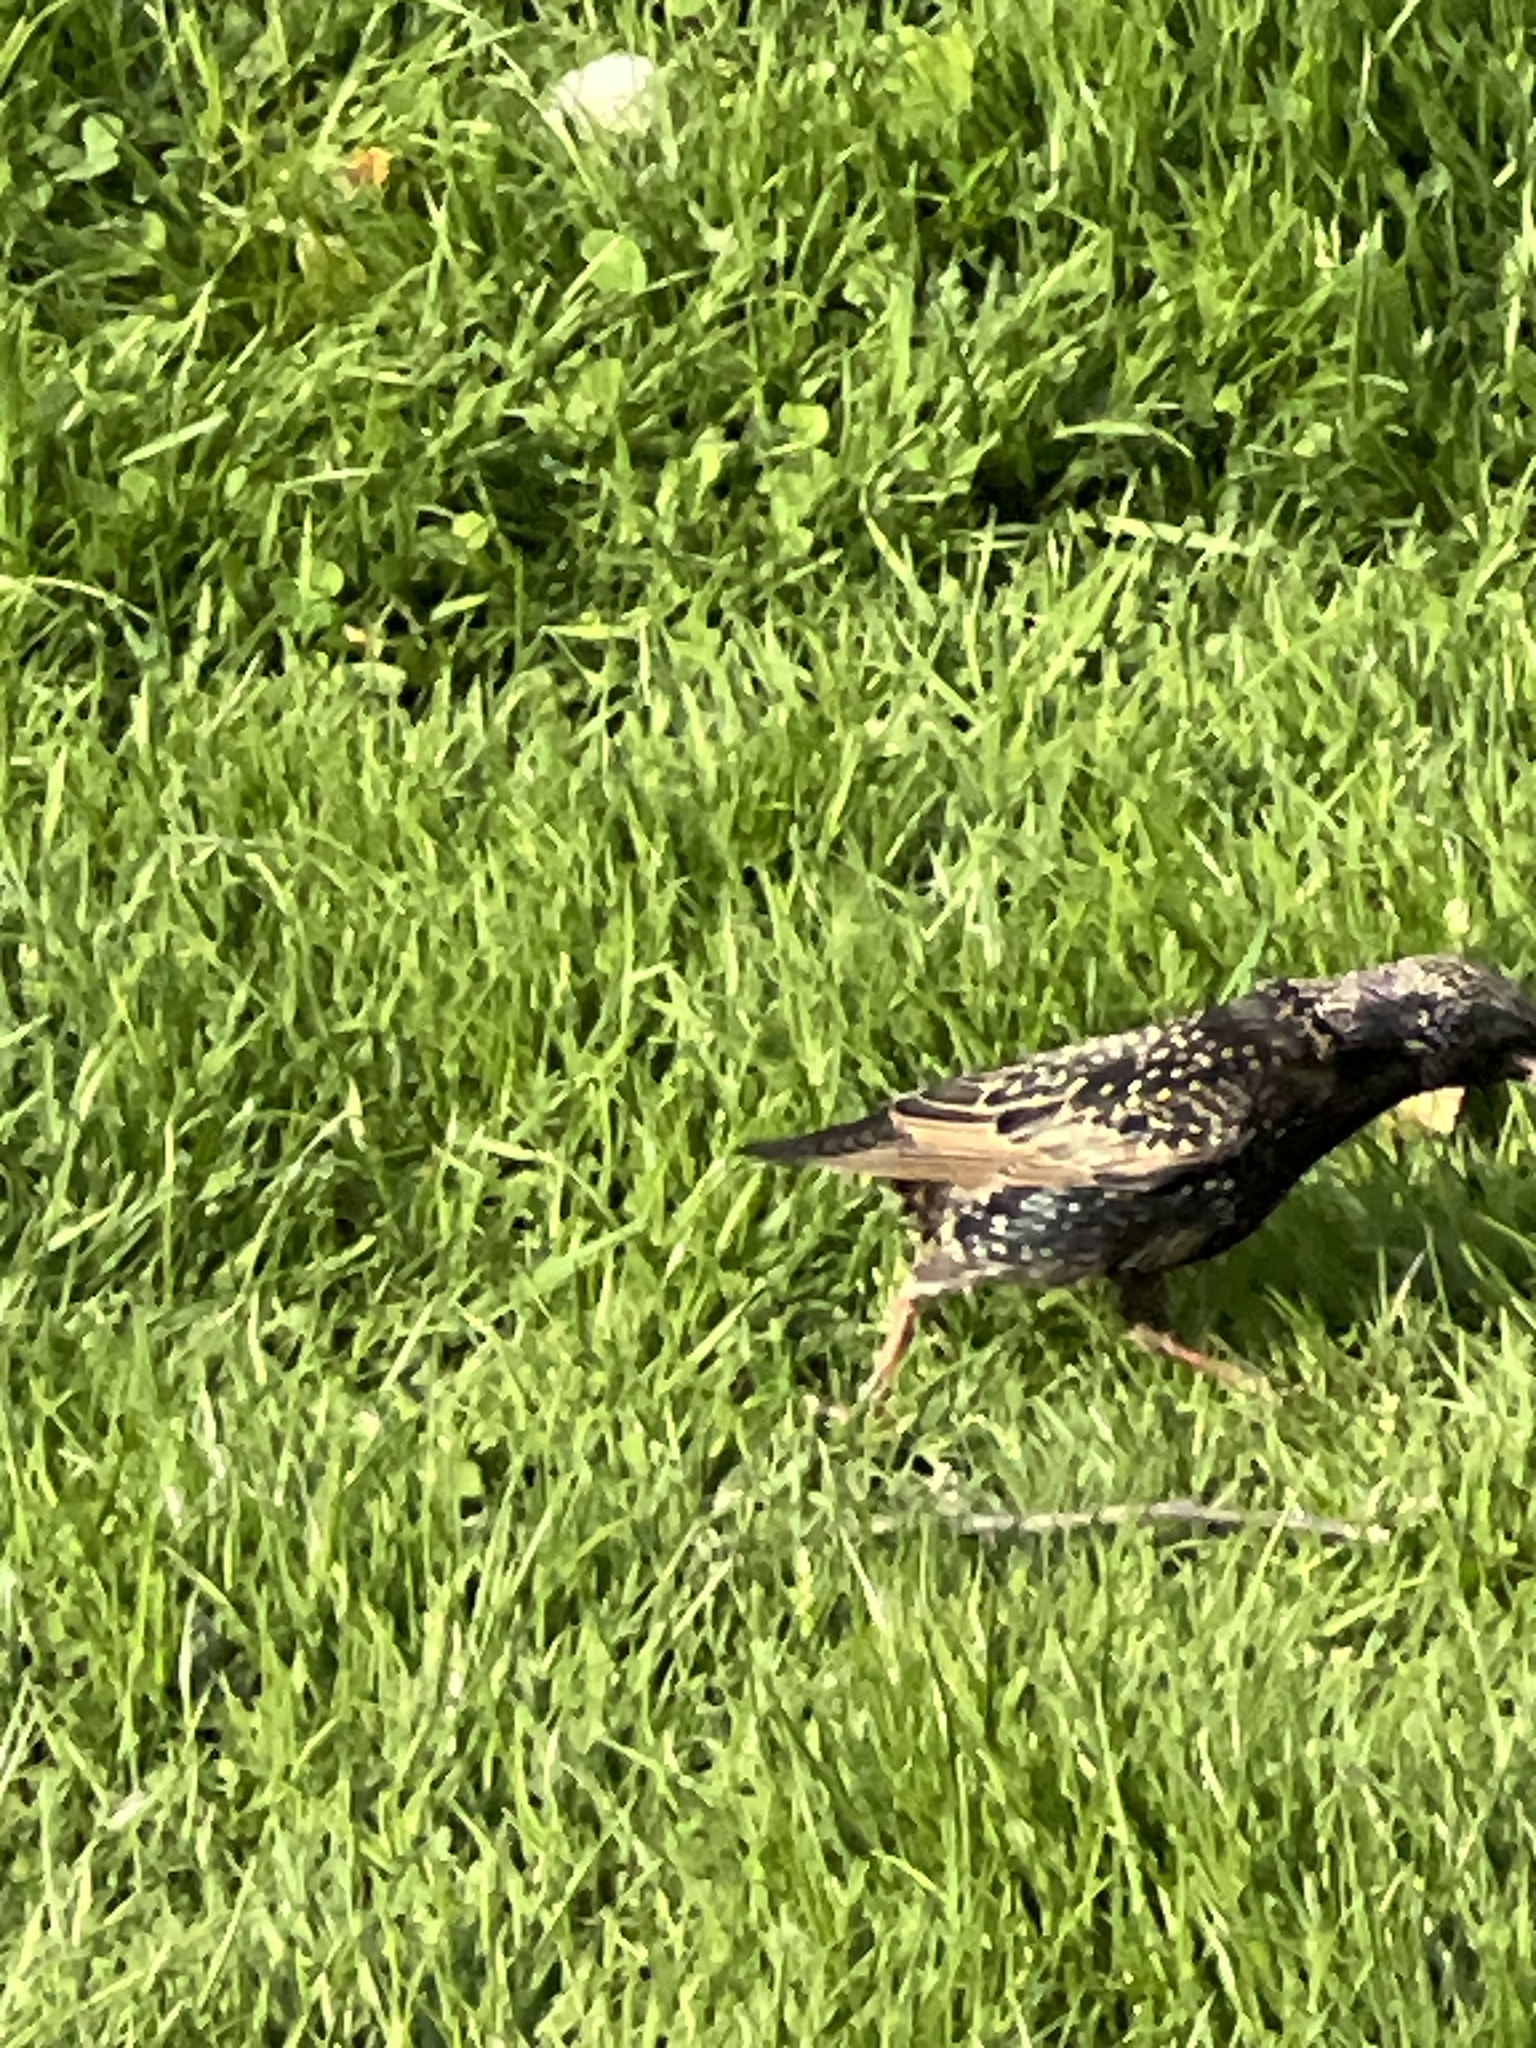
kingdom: Animalia
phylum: Chordata
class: Aves
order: Passeriformes
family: Sturnidae
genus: Sturnus
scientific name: Sturnus vulgaris
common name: Common starling
